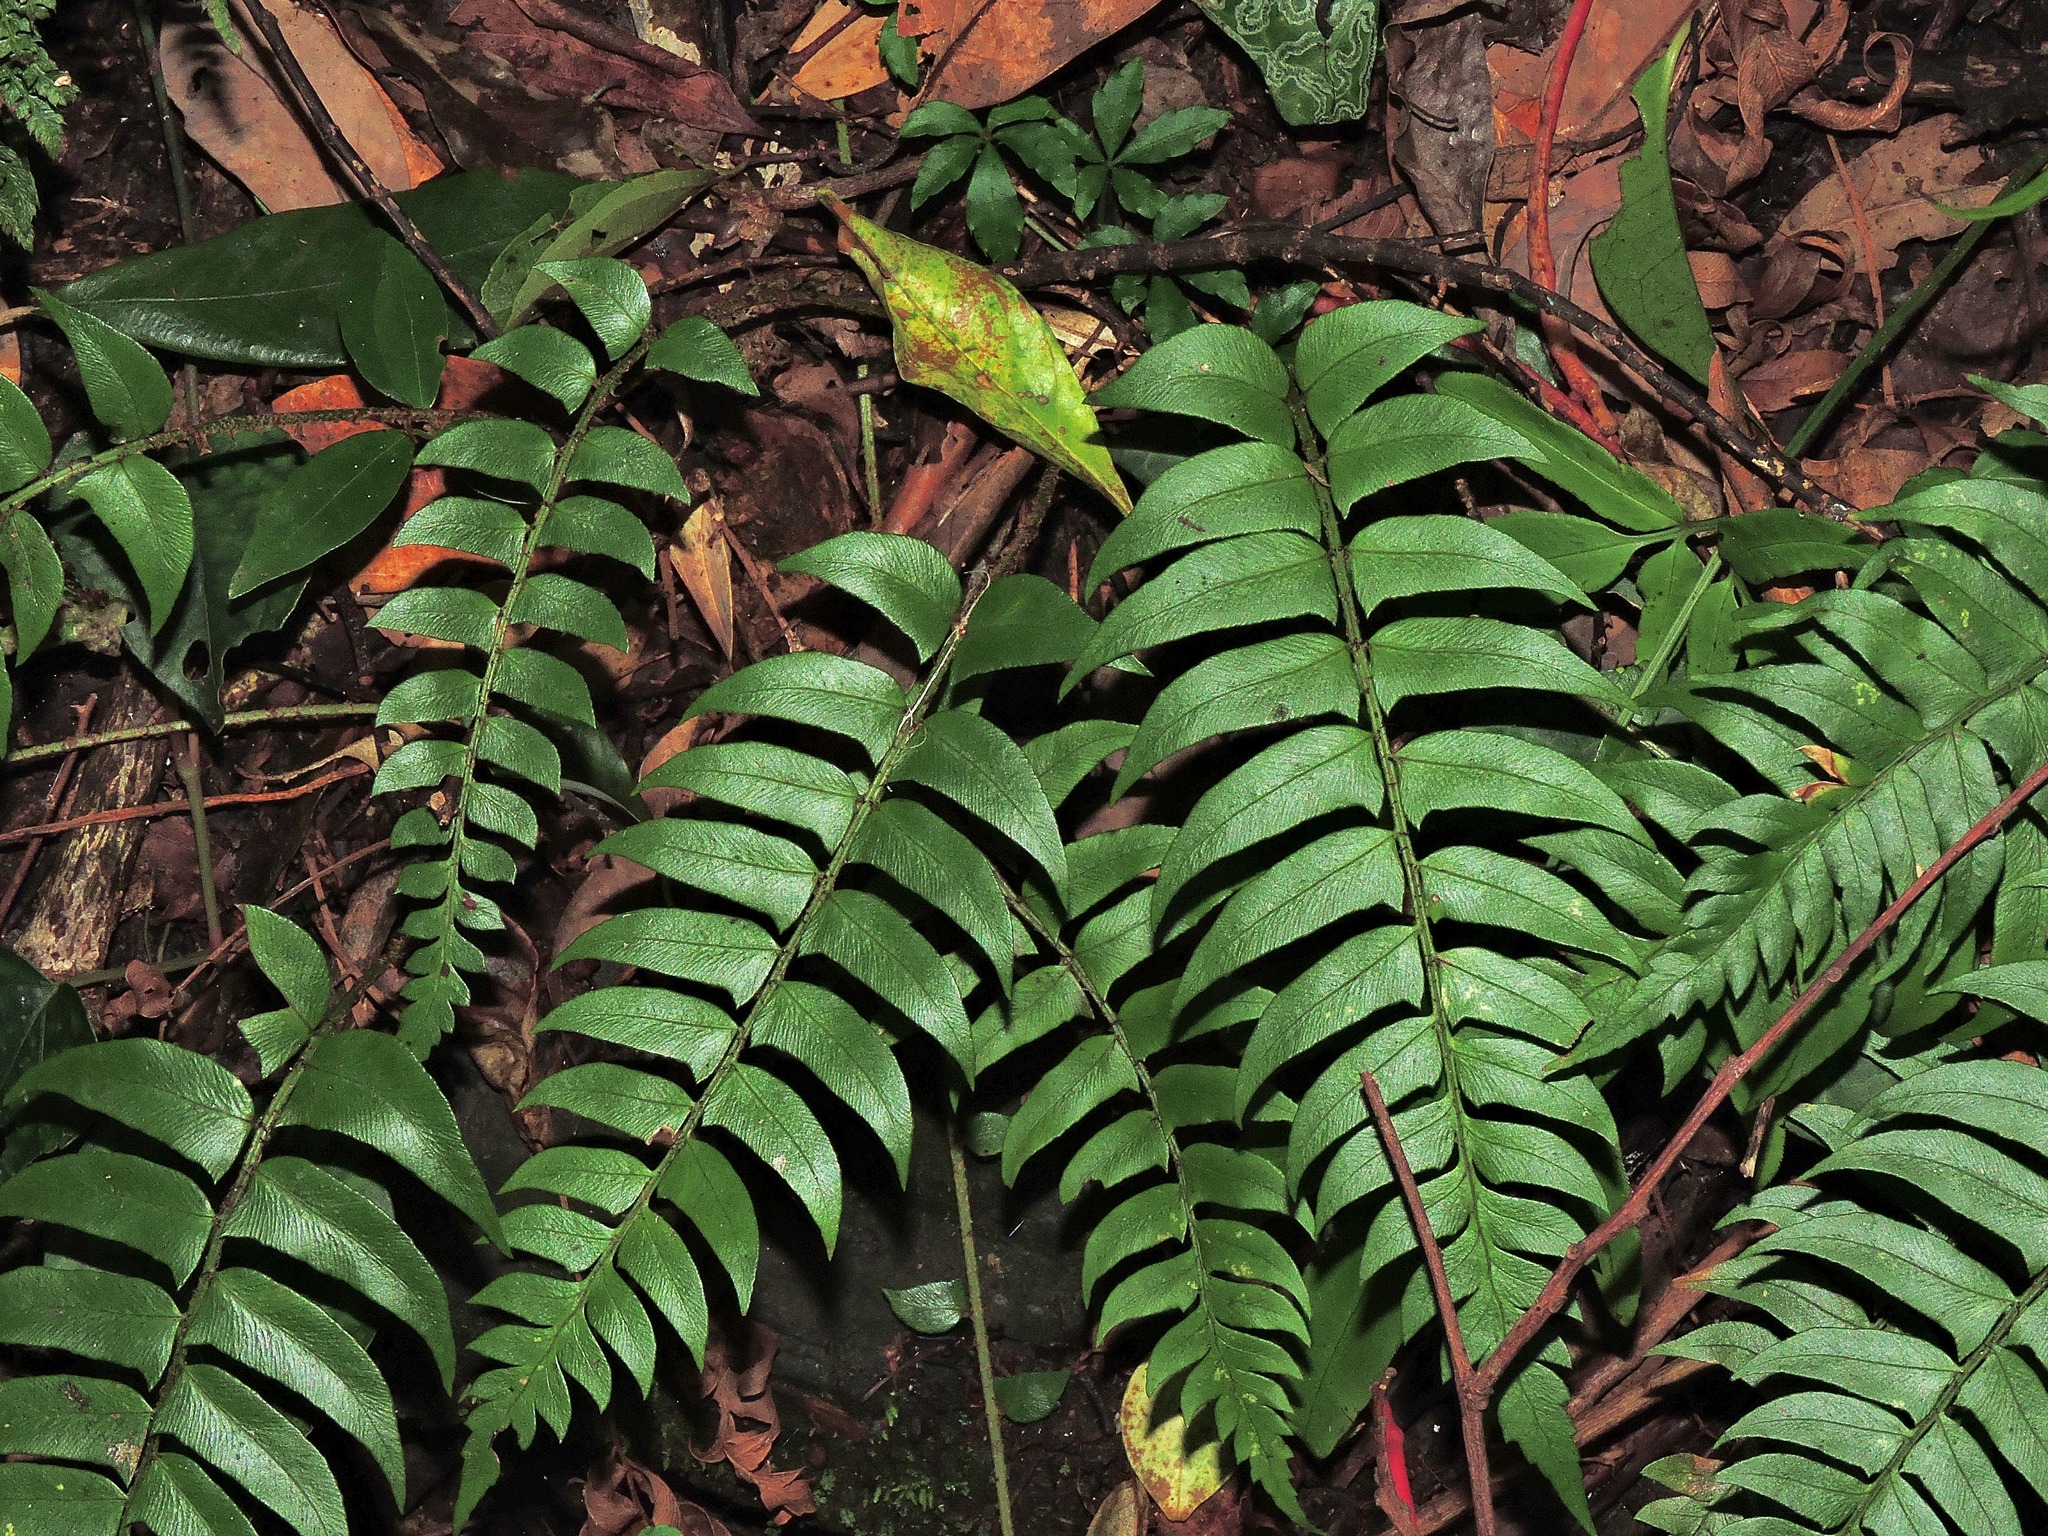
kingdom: Plantae
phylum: Tracheophyta
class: Polypodiopsida
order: Polypodiales
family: Dryopteridaceae
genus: Polystichum
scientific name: Polystichum lepidocaulon
